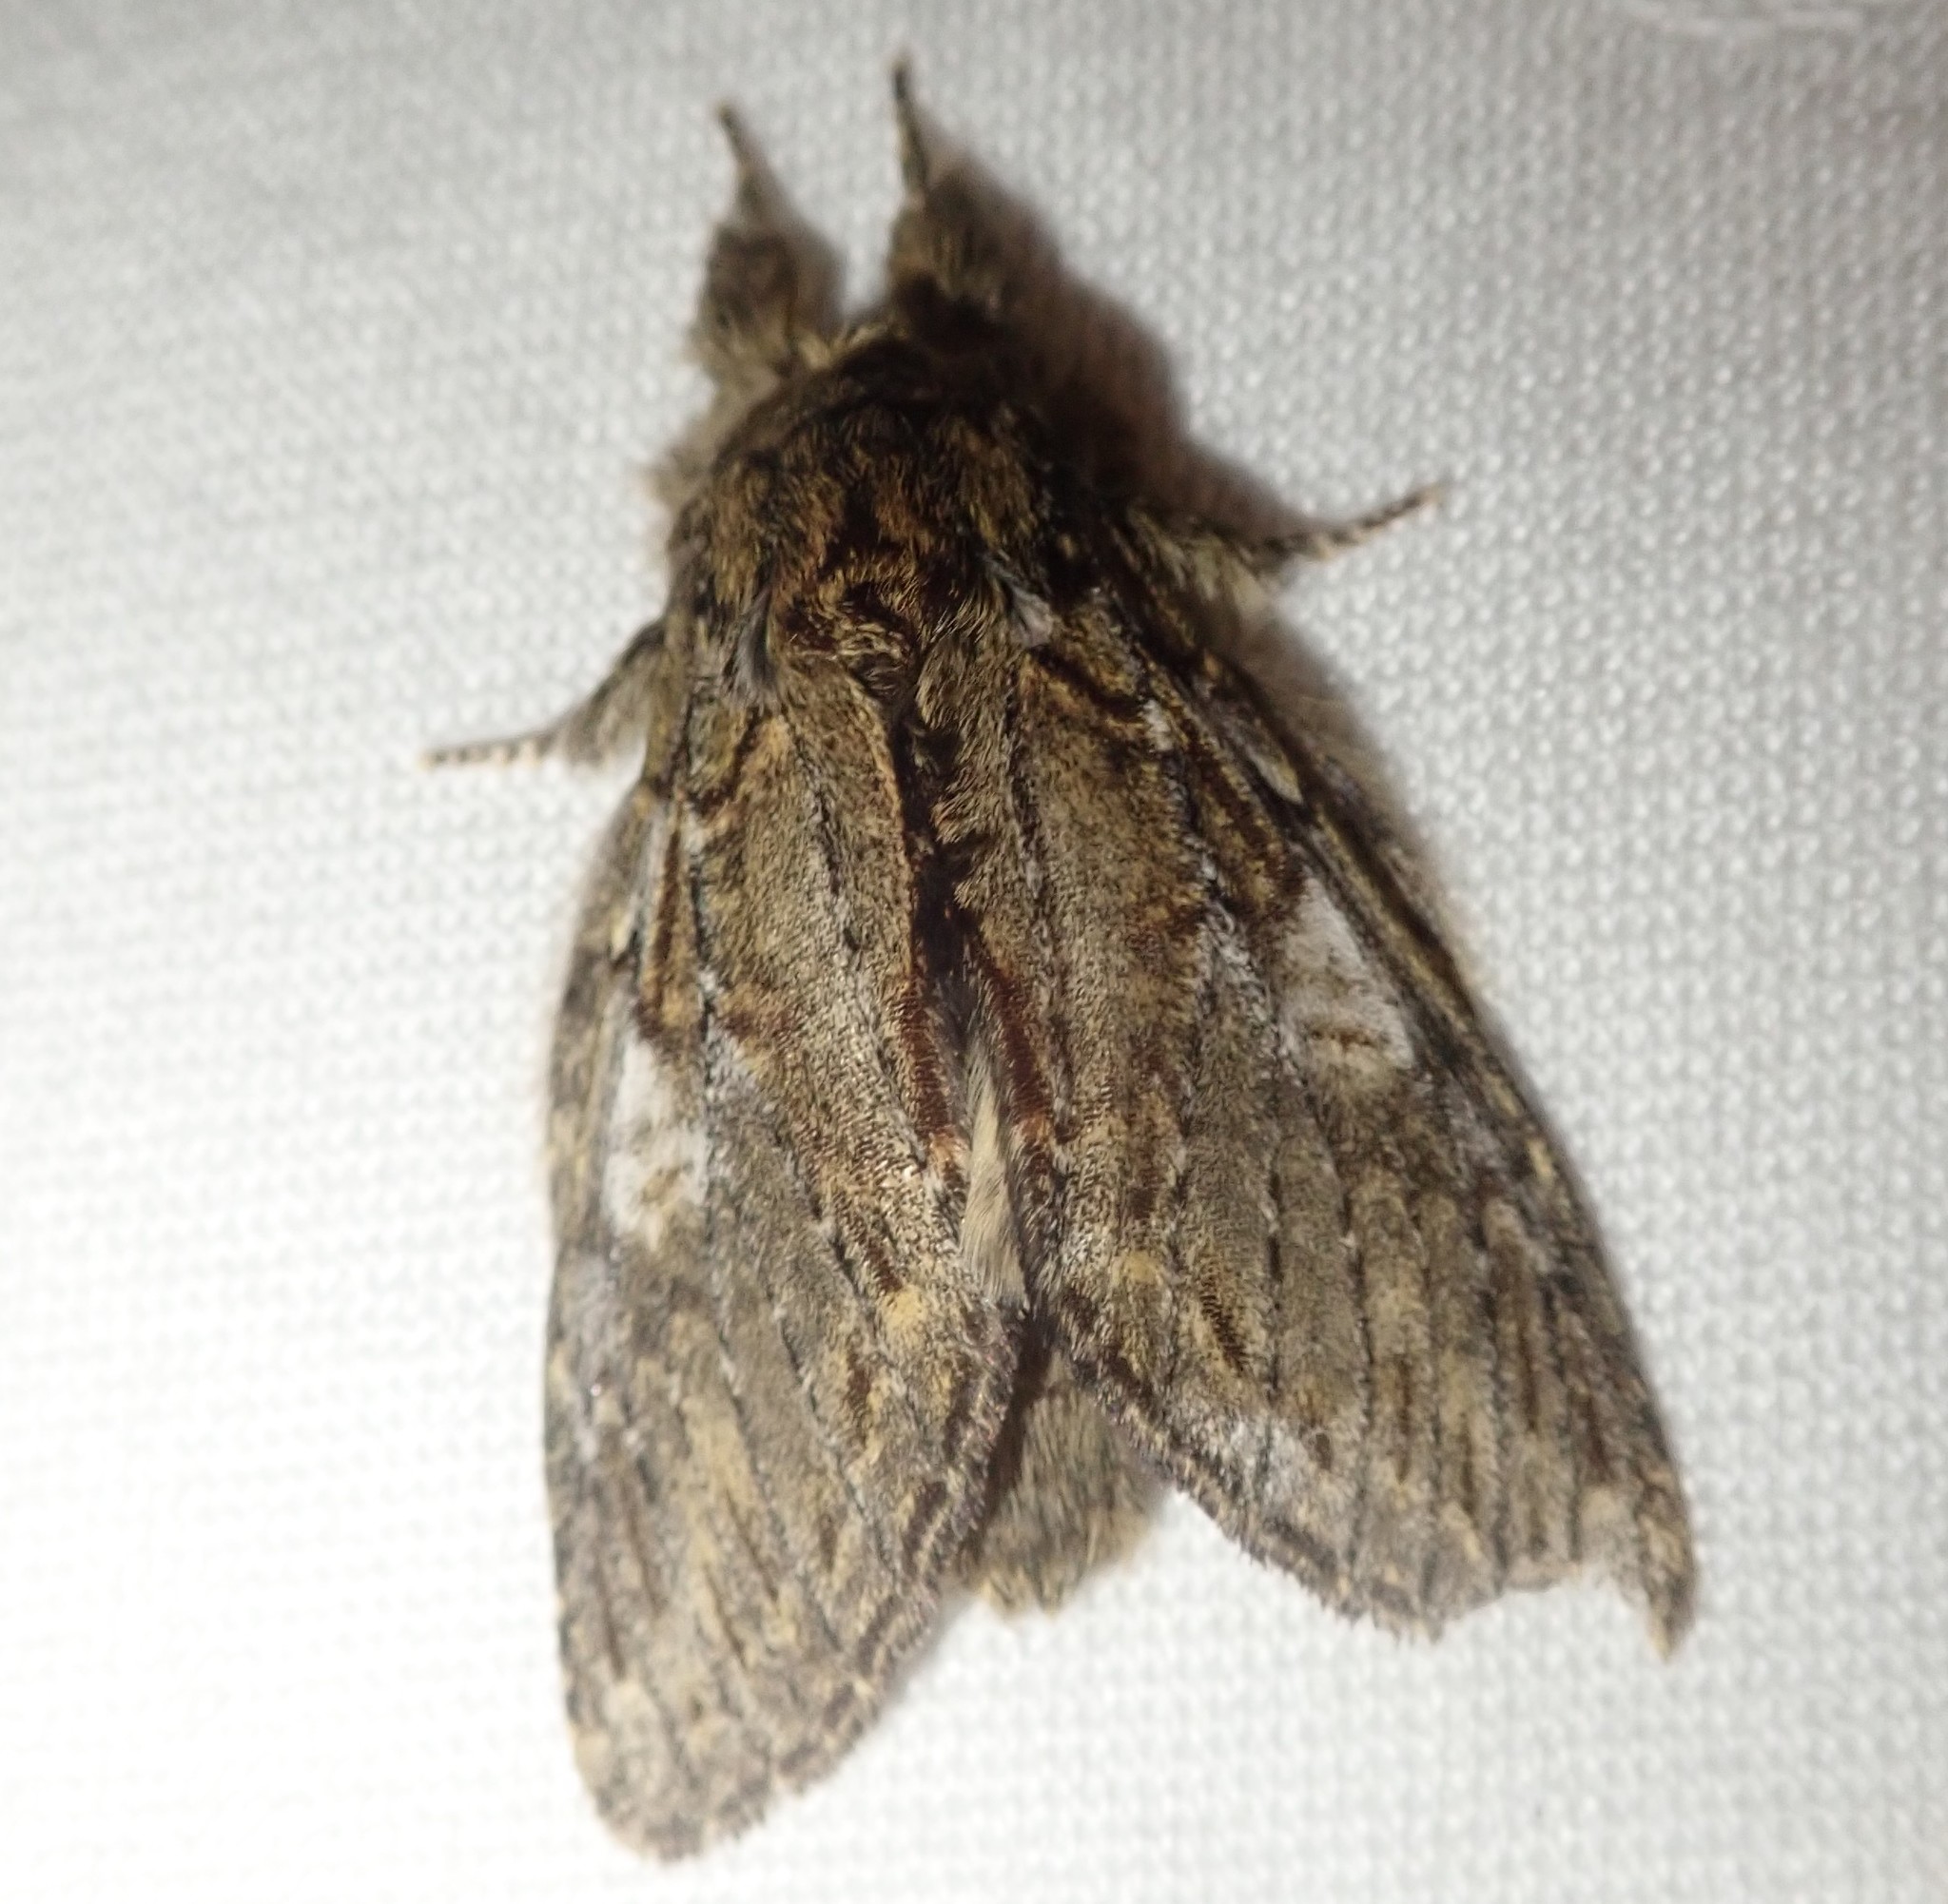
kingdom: Animalia
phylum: Arthropoda
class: Insecta
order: Lepidoptera
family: Notodontidae
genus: Peridea
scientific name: Peridea anceps
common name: Great prominent
